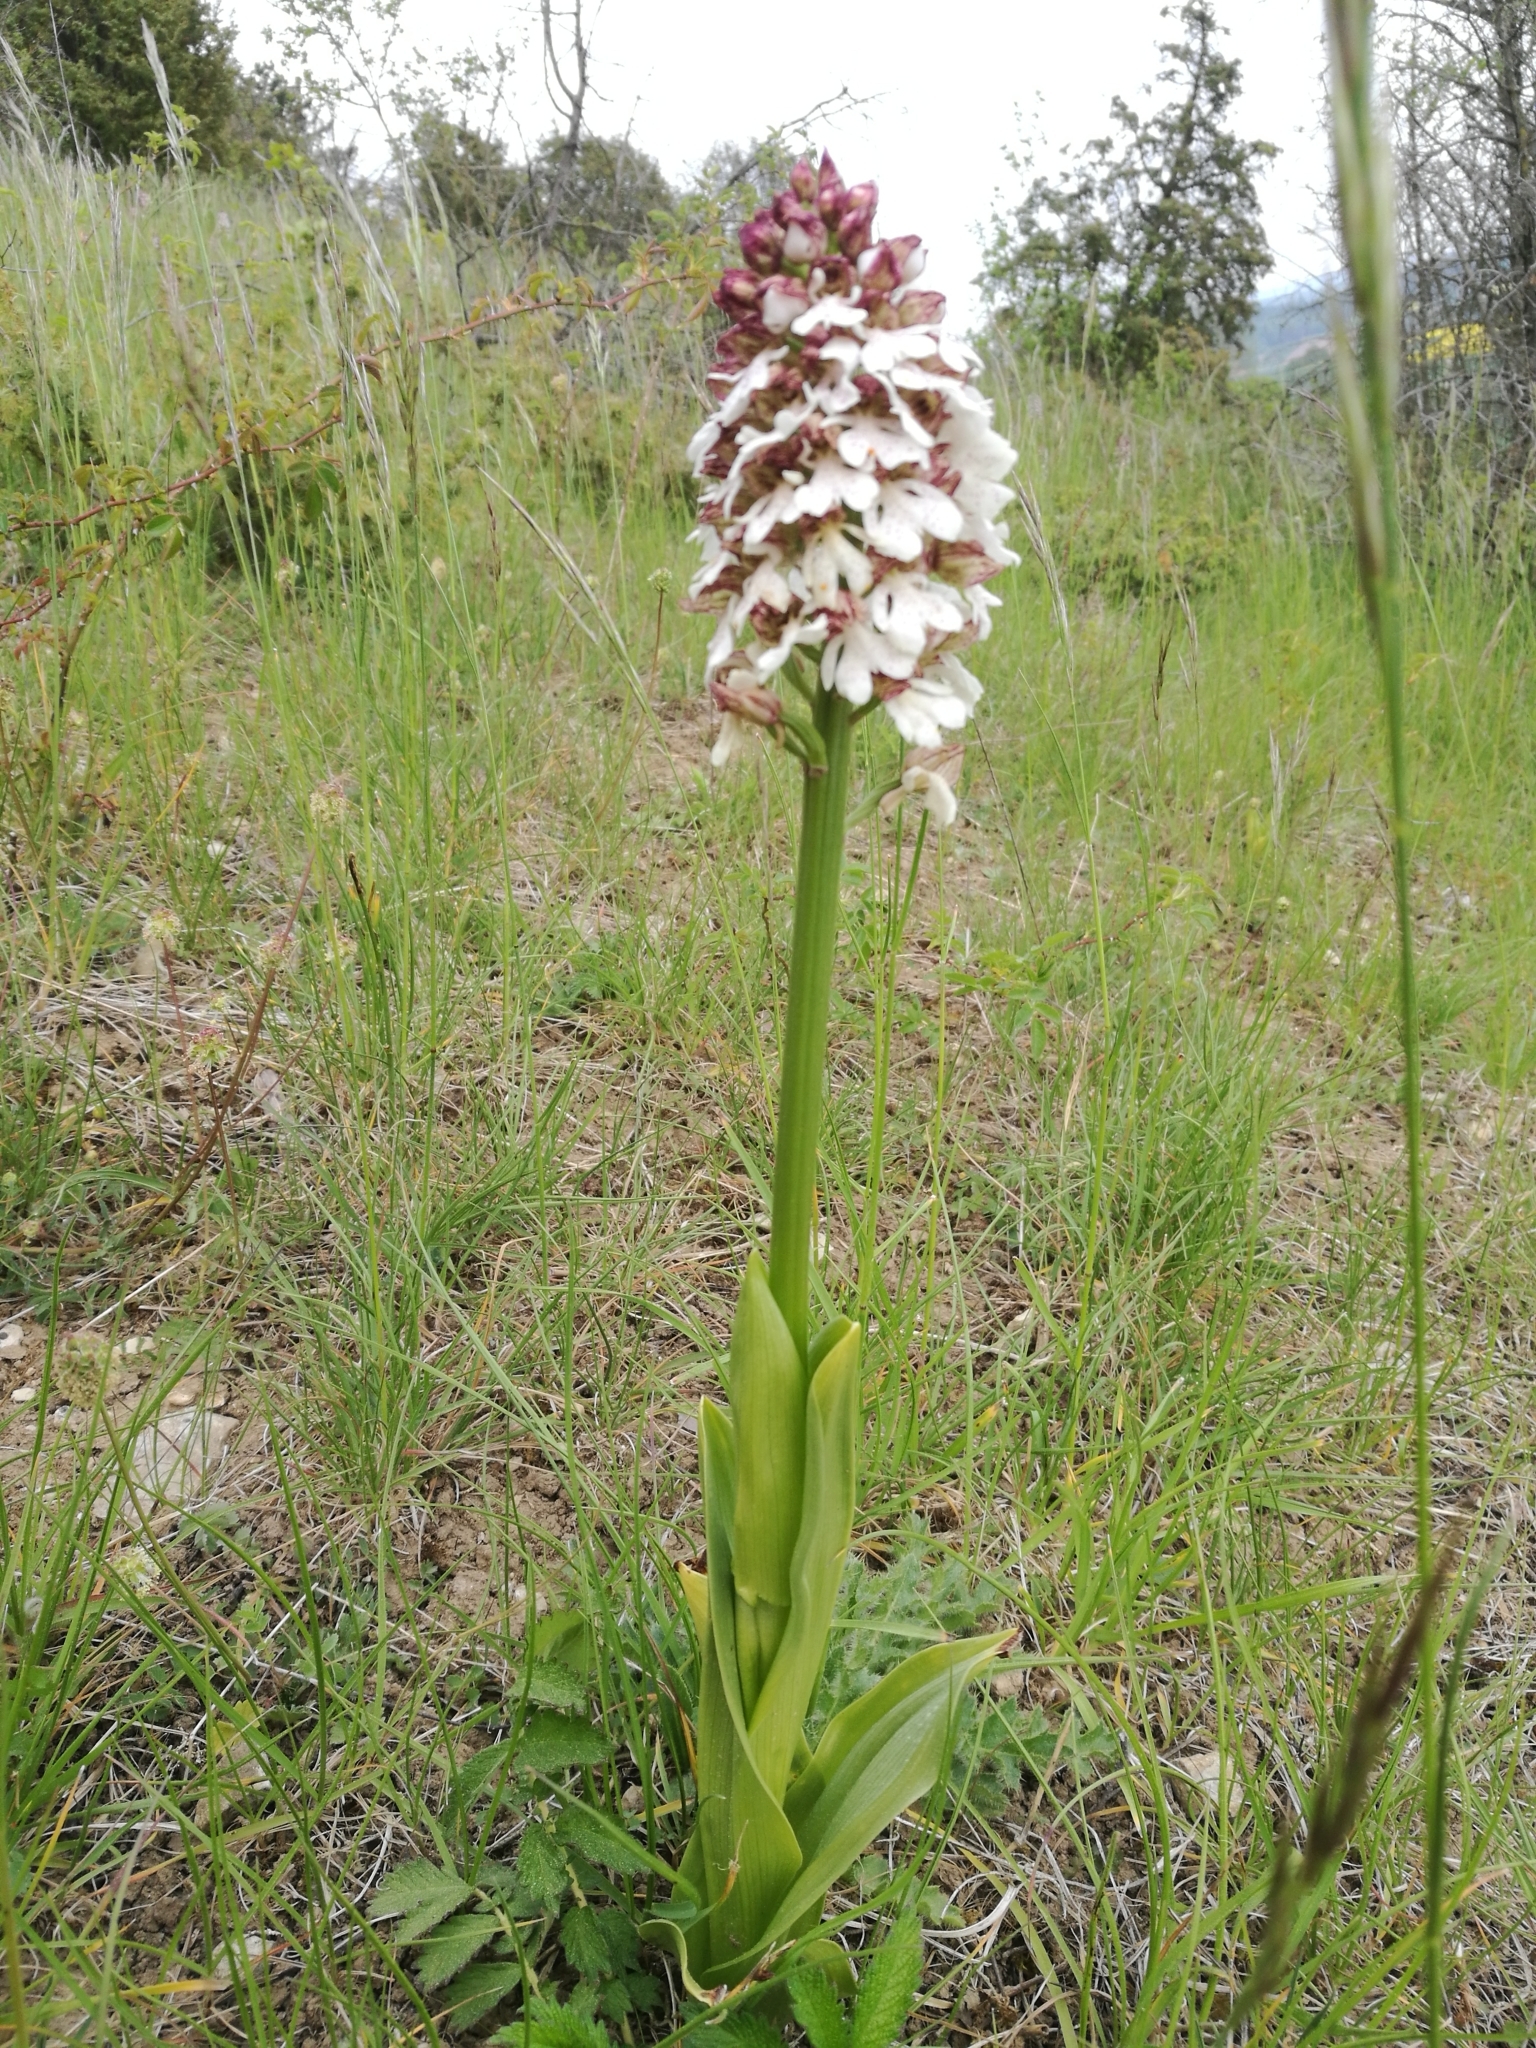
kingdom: Plantae
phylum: Tracheophyta
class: Liliopsida
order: Asparagales
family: Orchidaceae
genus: Orchis
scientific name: Orchis purpurea
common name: Lady orchid
